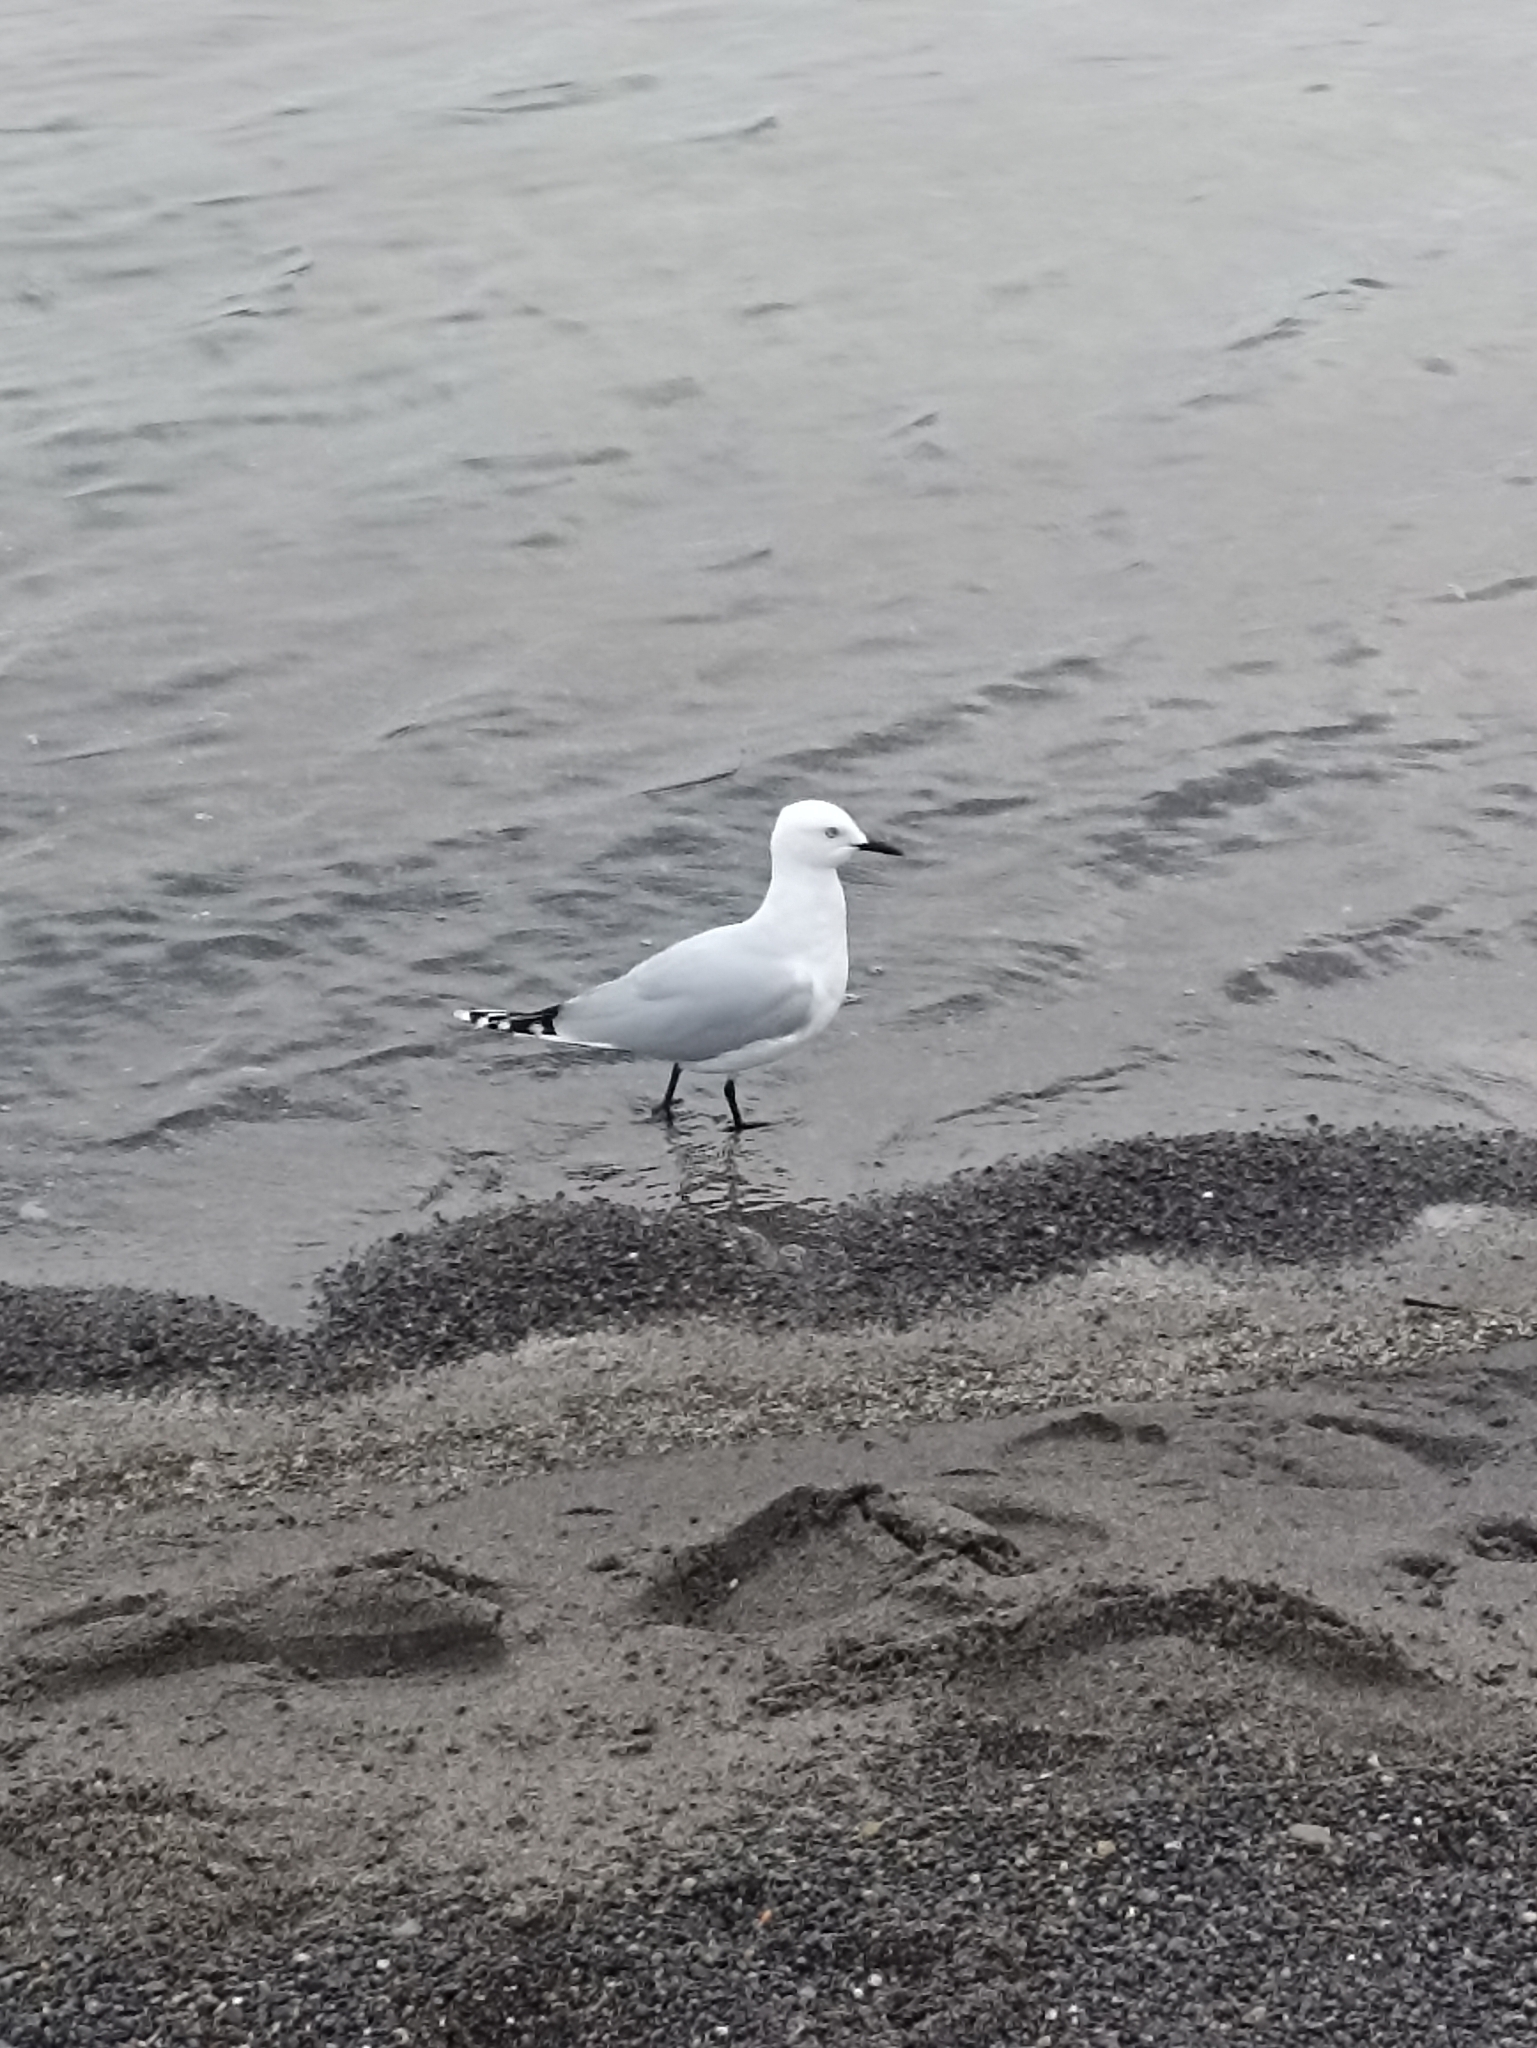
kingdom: Animalia
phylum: Chordata
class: Aves
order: Charadriiformes
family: Laridae
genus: Chroicocephalus
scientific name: Chroicocephalus bulleri
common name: Black-billed gull
